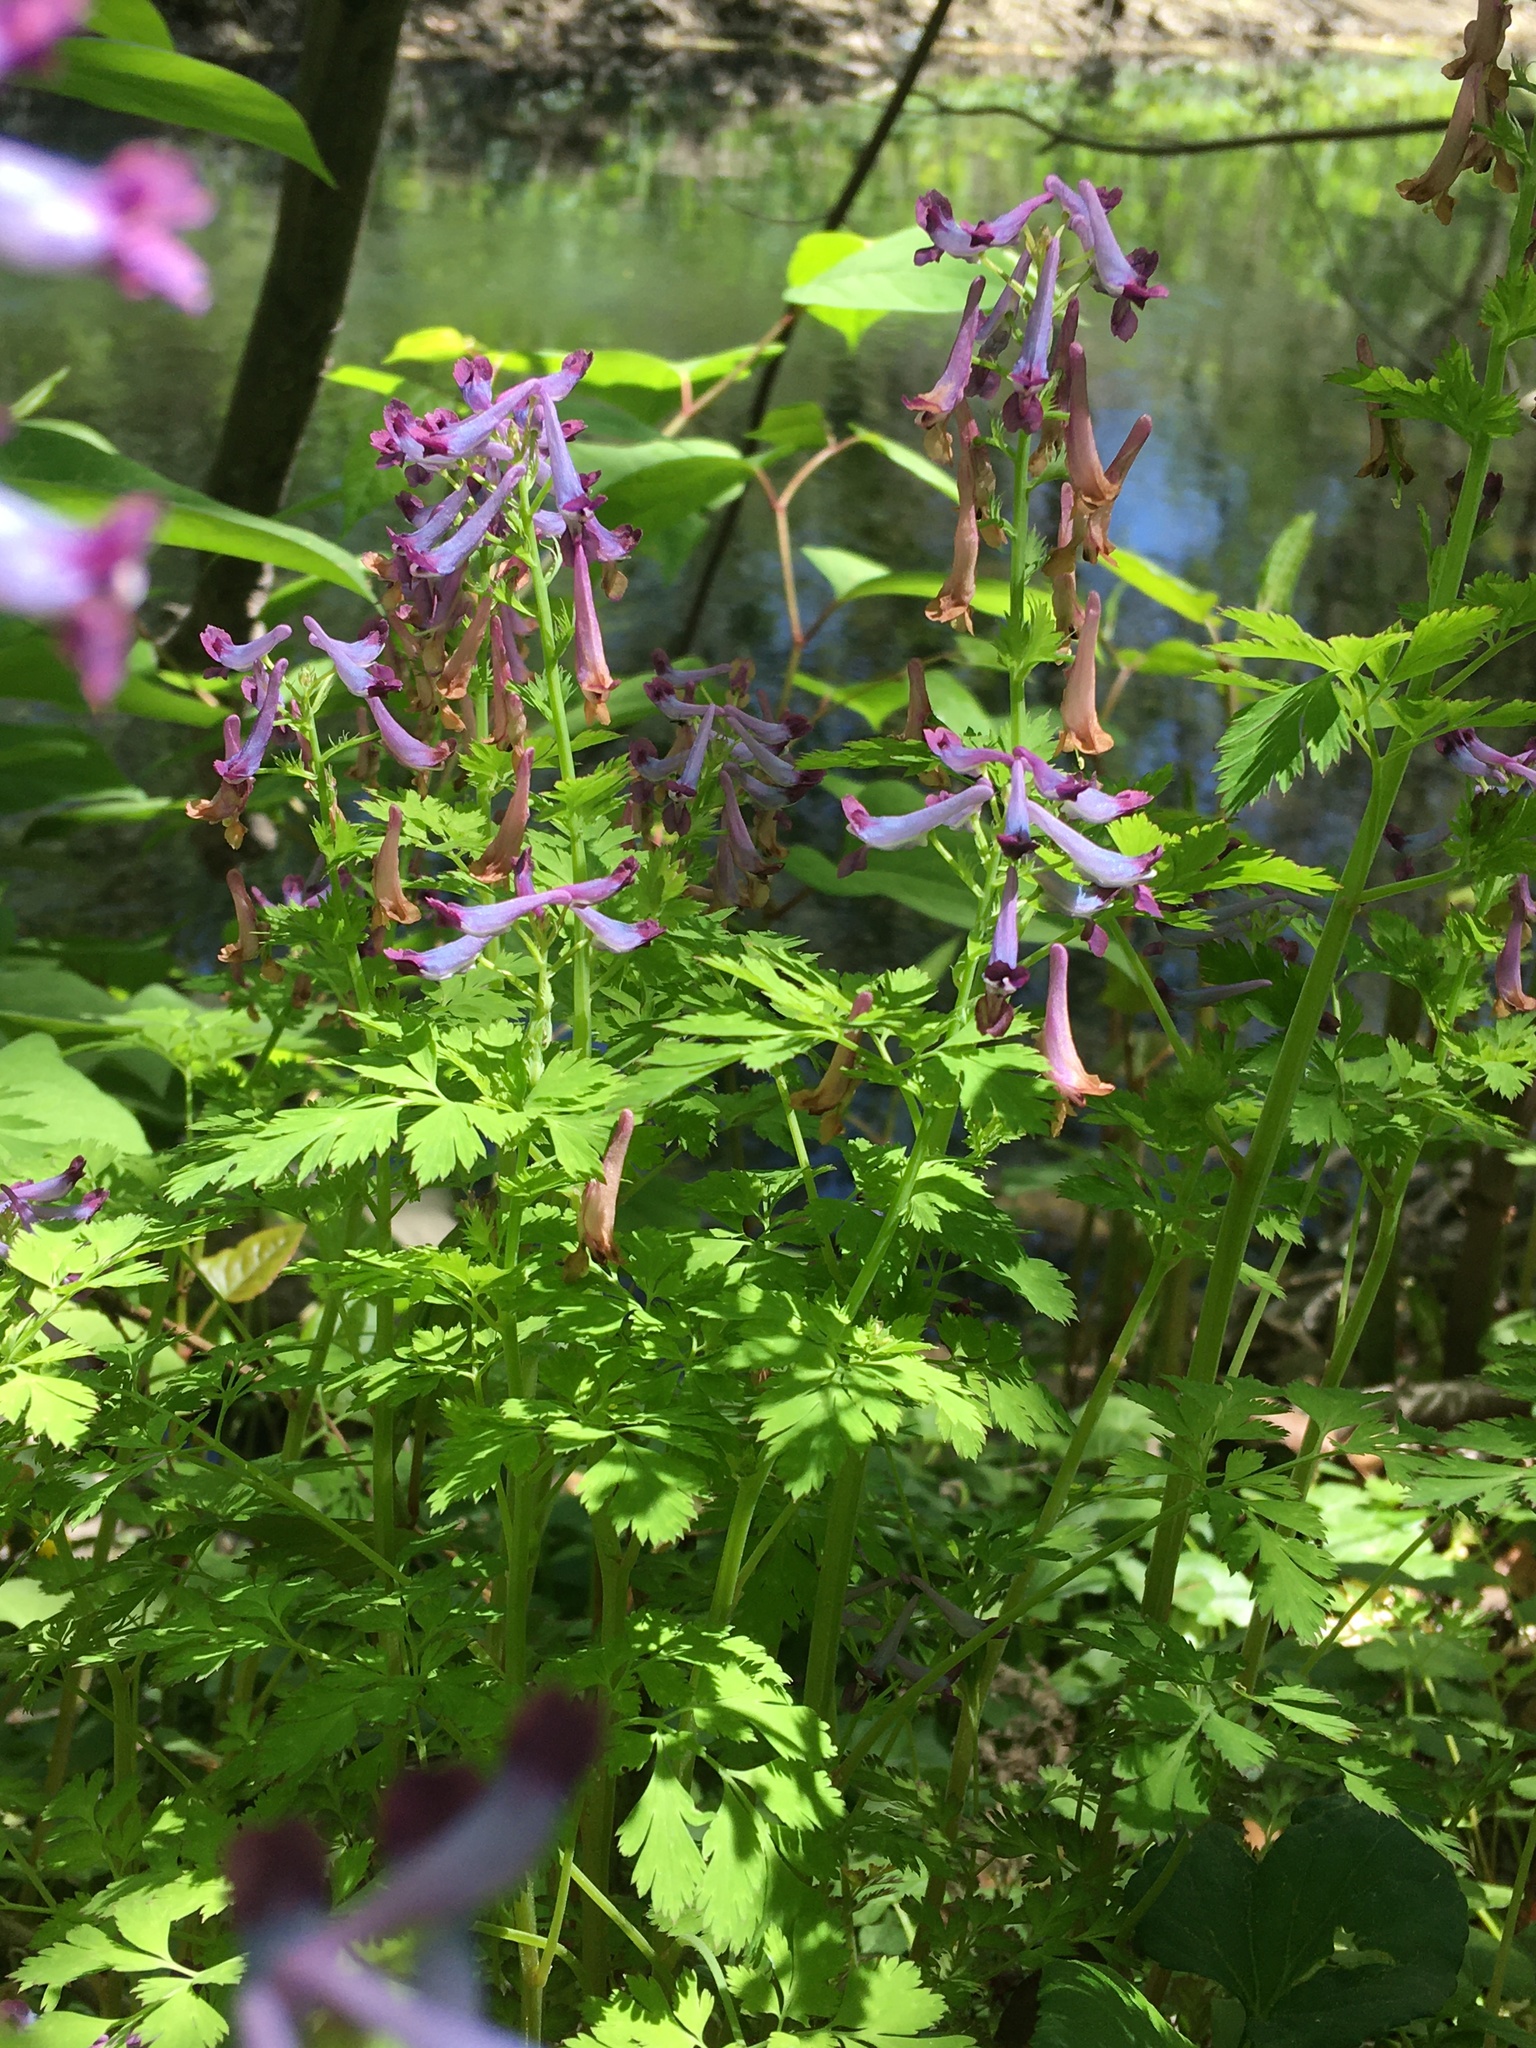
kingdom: Plantae
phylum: Tracheophyta
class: Magnoliopsida
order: Ranunculales
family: Papaveraceae
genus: Corydalis
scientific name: Corydalis incisa
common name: Incised fumewort
